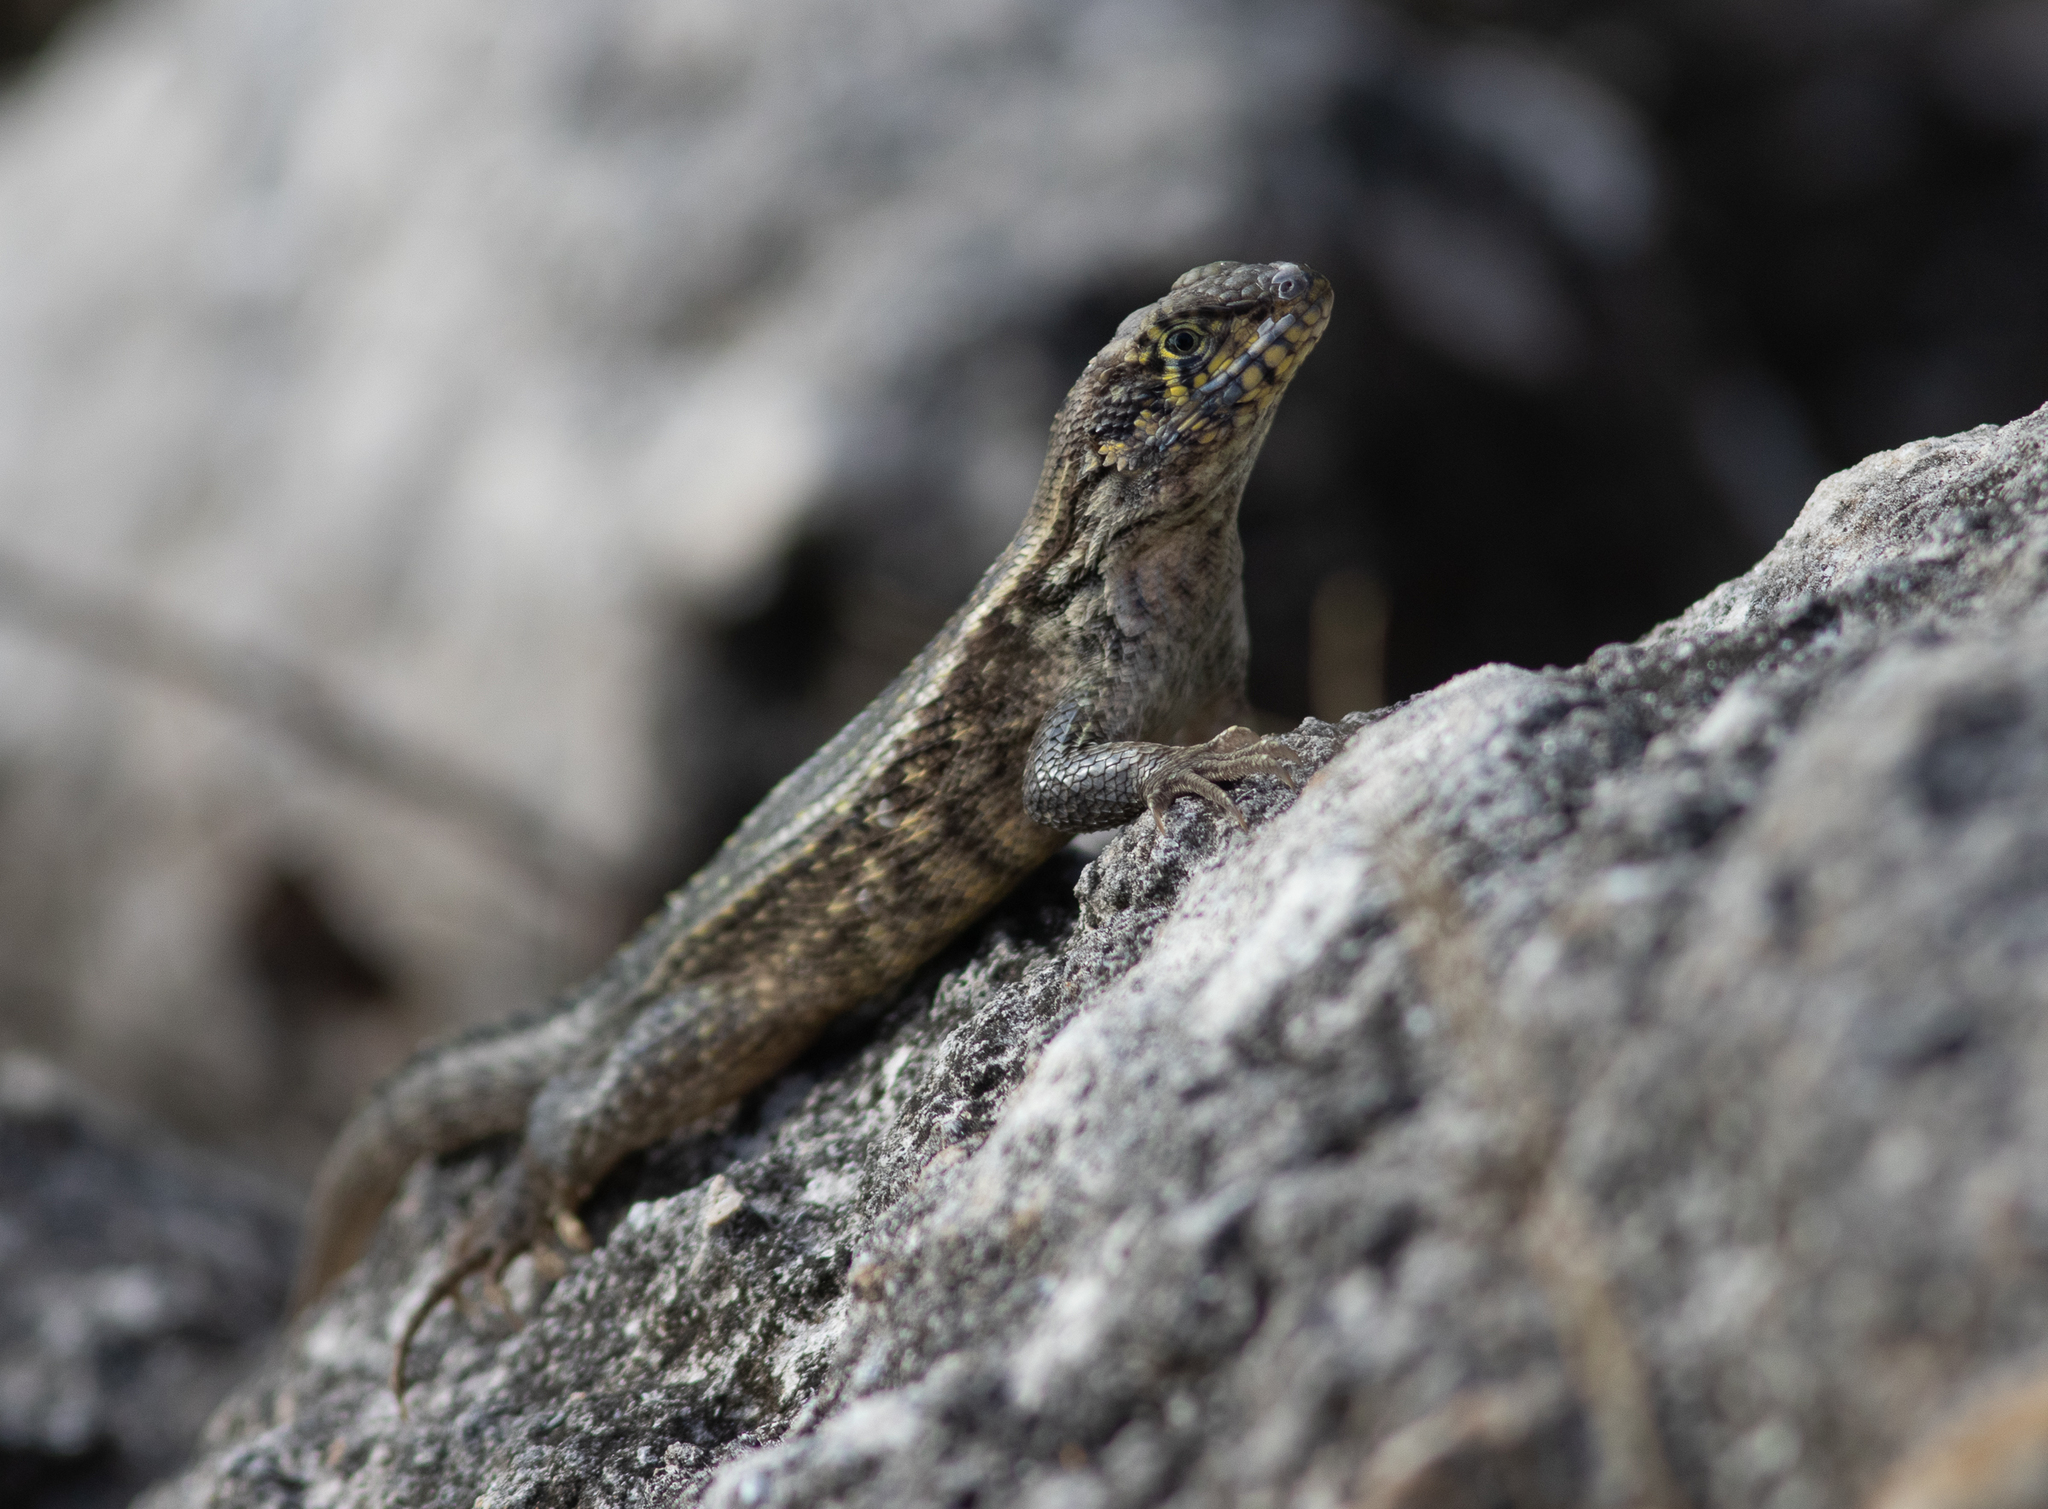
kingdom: Animalia
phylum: Chordata
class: Squamata
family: Leiocephalidae
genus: Leiocephalus
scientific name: Leiocephalus carinatus
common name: Northern curly-tailed lizard
